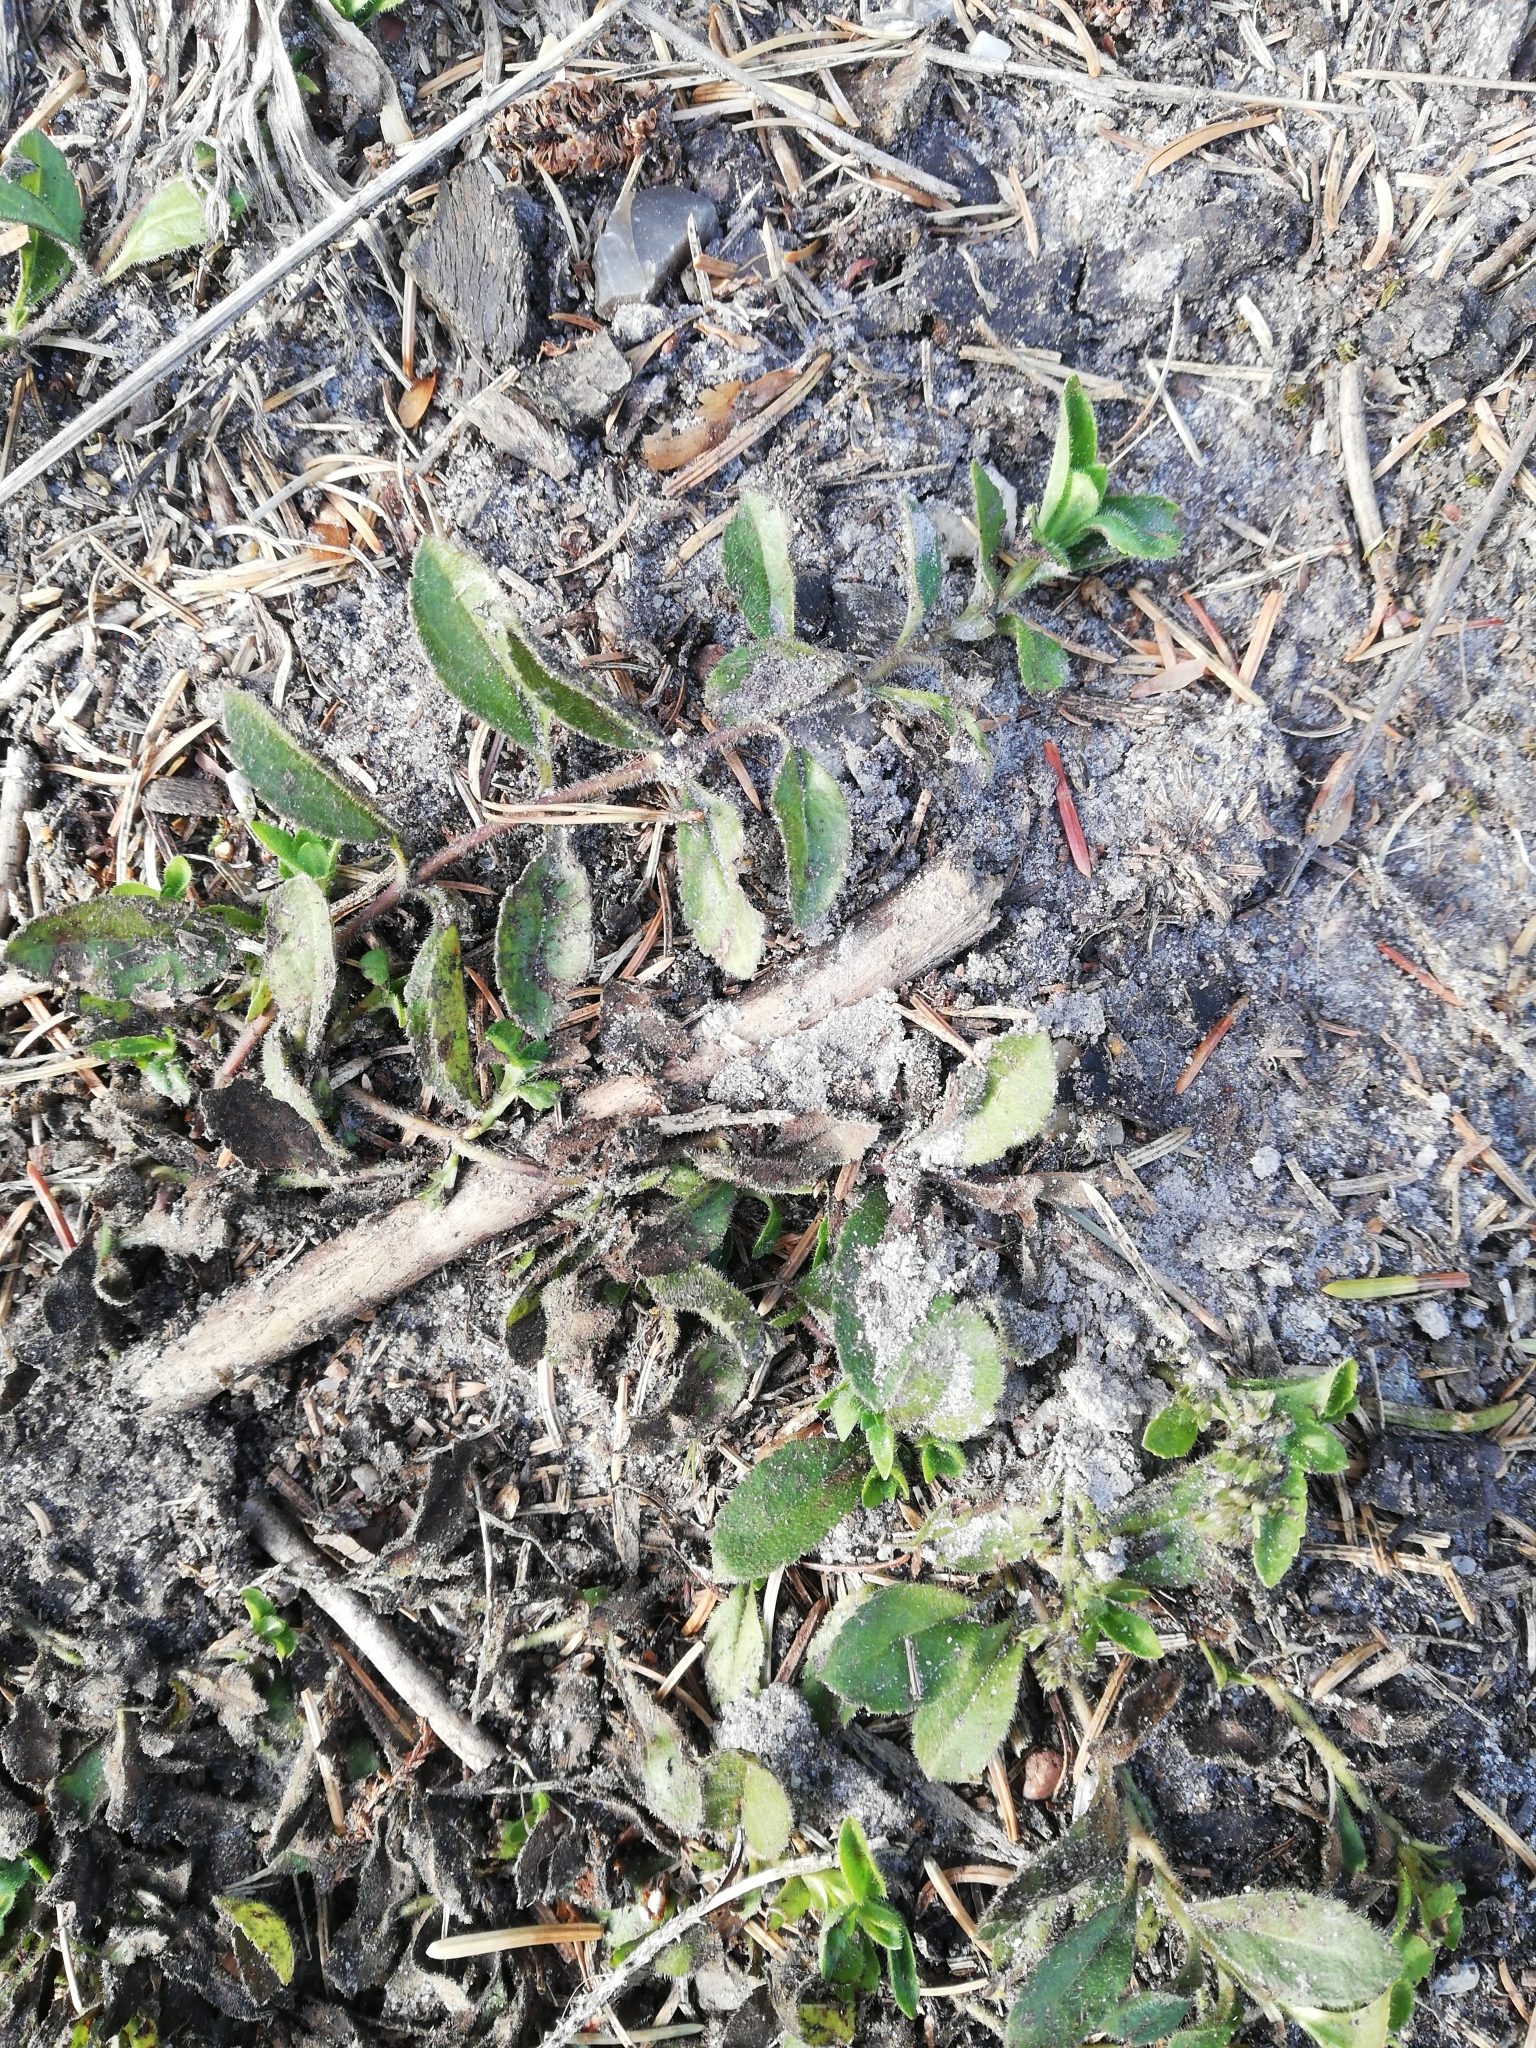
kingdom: Plantae
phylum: Tracheophyta
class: Magnoliopsida
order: Lamiales
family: Plantaginaceae
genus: Veronica
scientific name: Veronica officinalis
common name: Common speedwell
